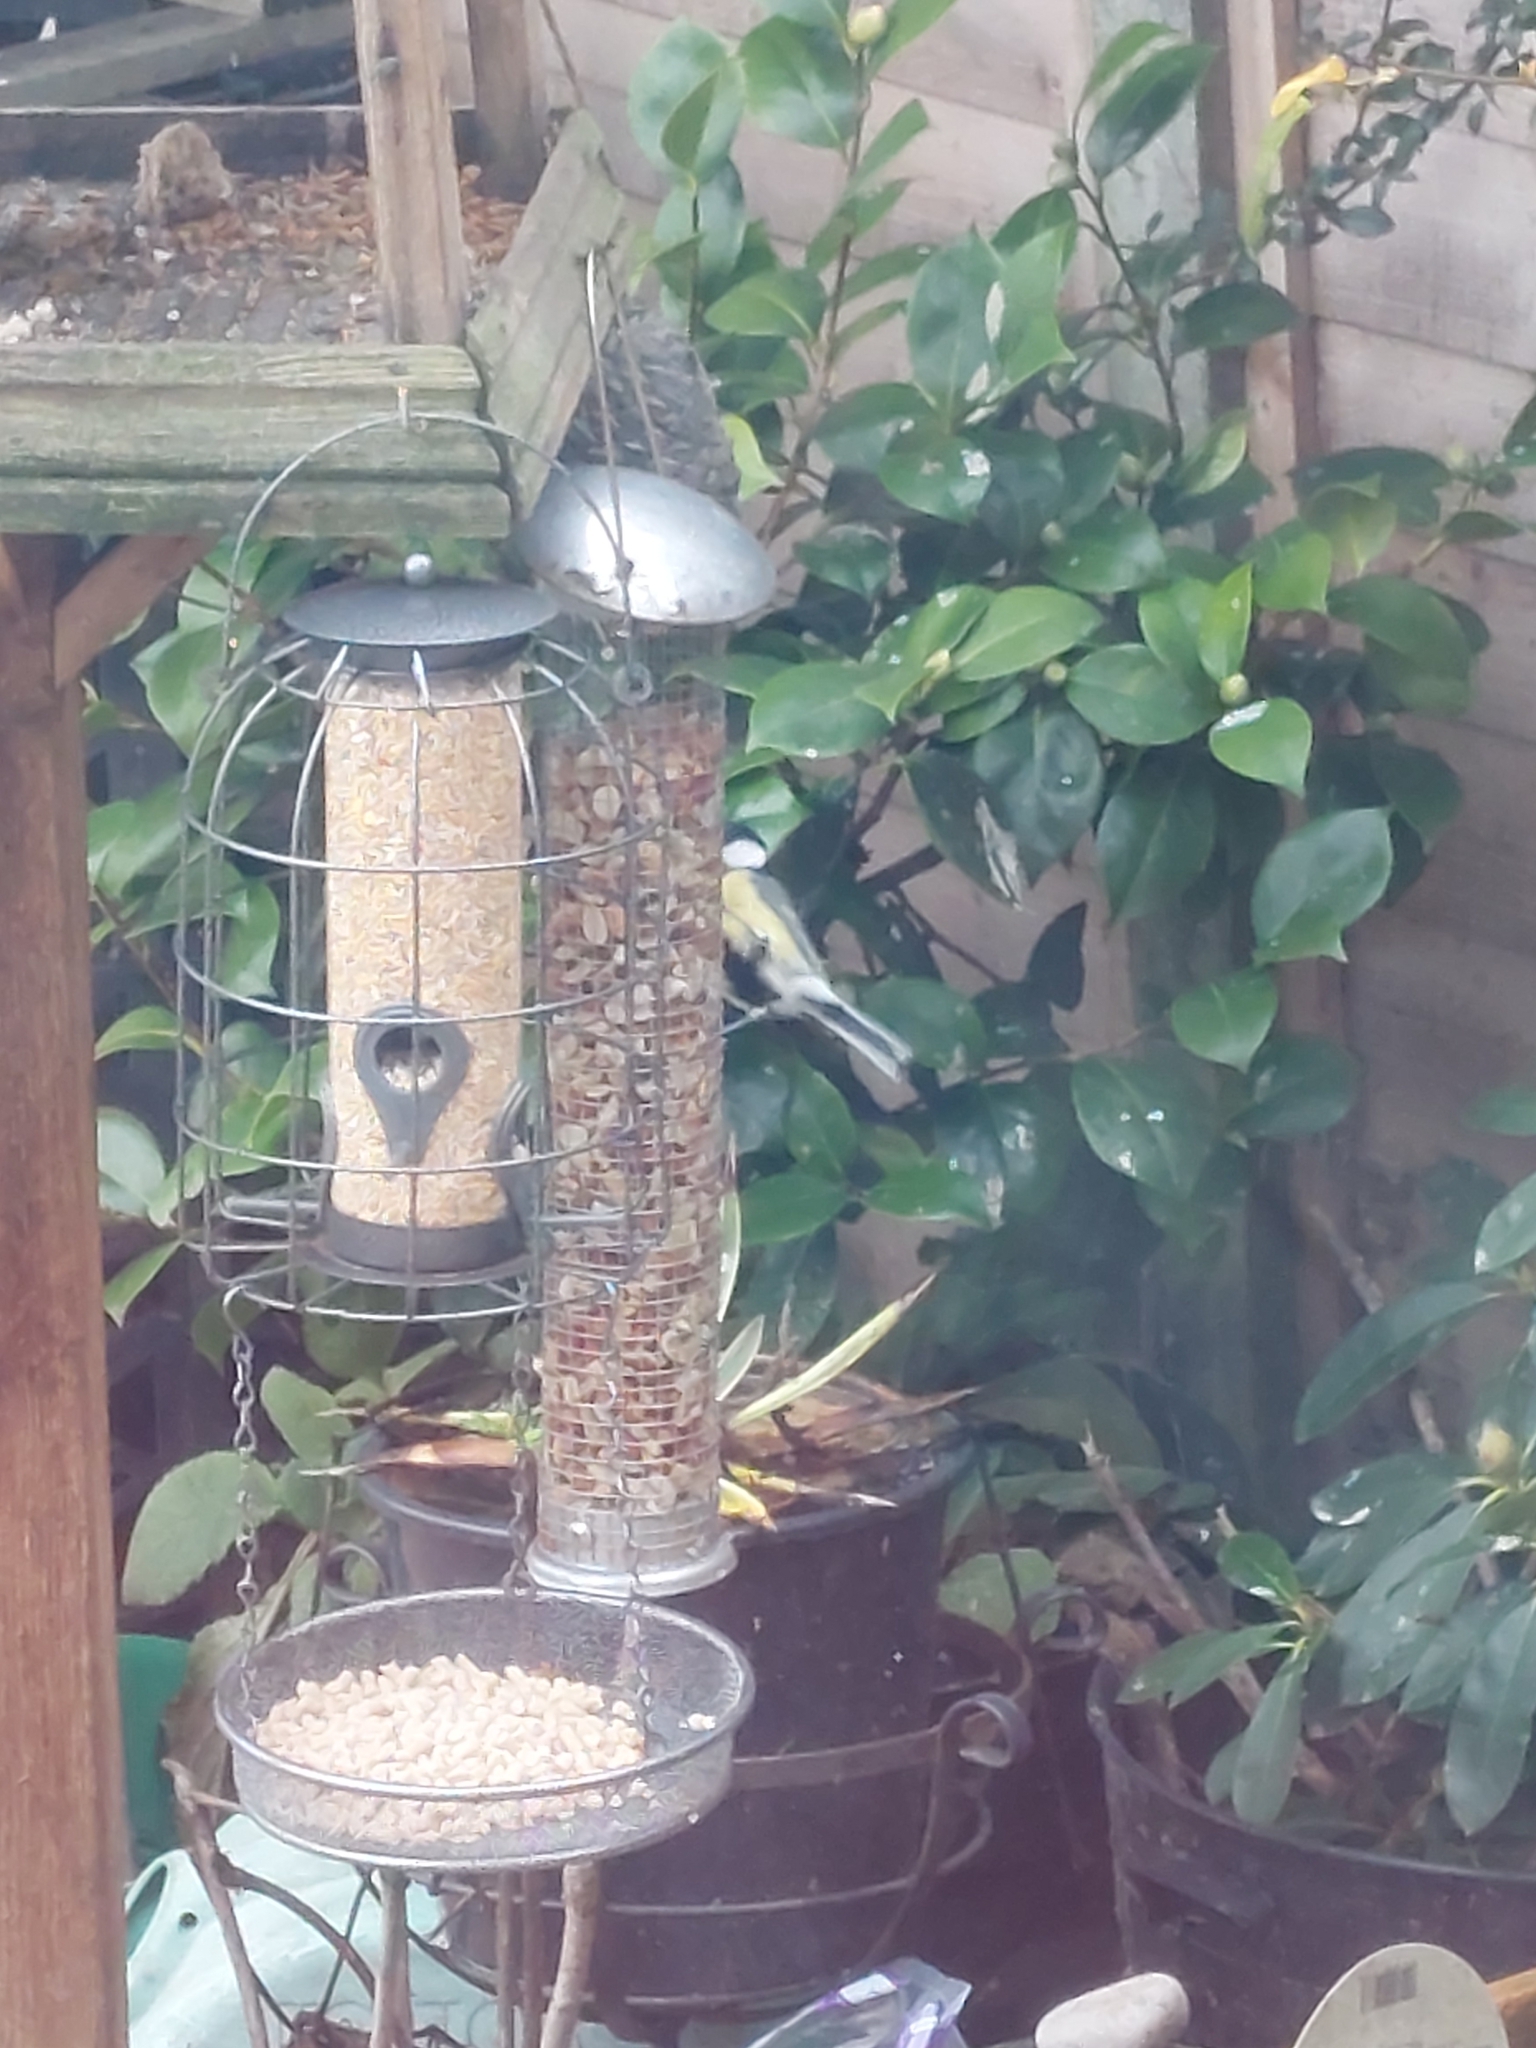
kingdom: Animalia
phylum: Chordata
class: Aves
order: Passeriformes
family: Paridae
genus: Parus
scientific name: Parus major
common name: Great tit
